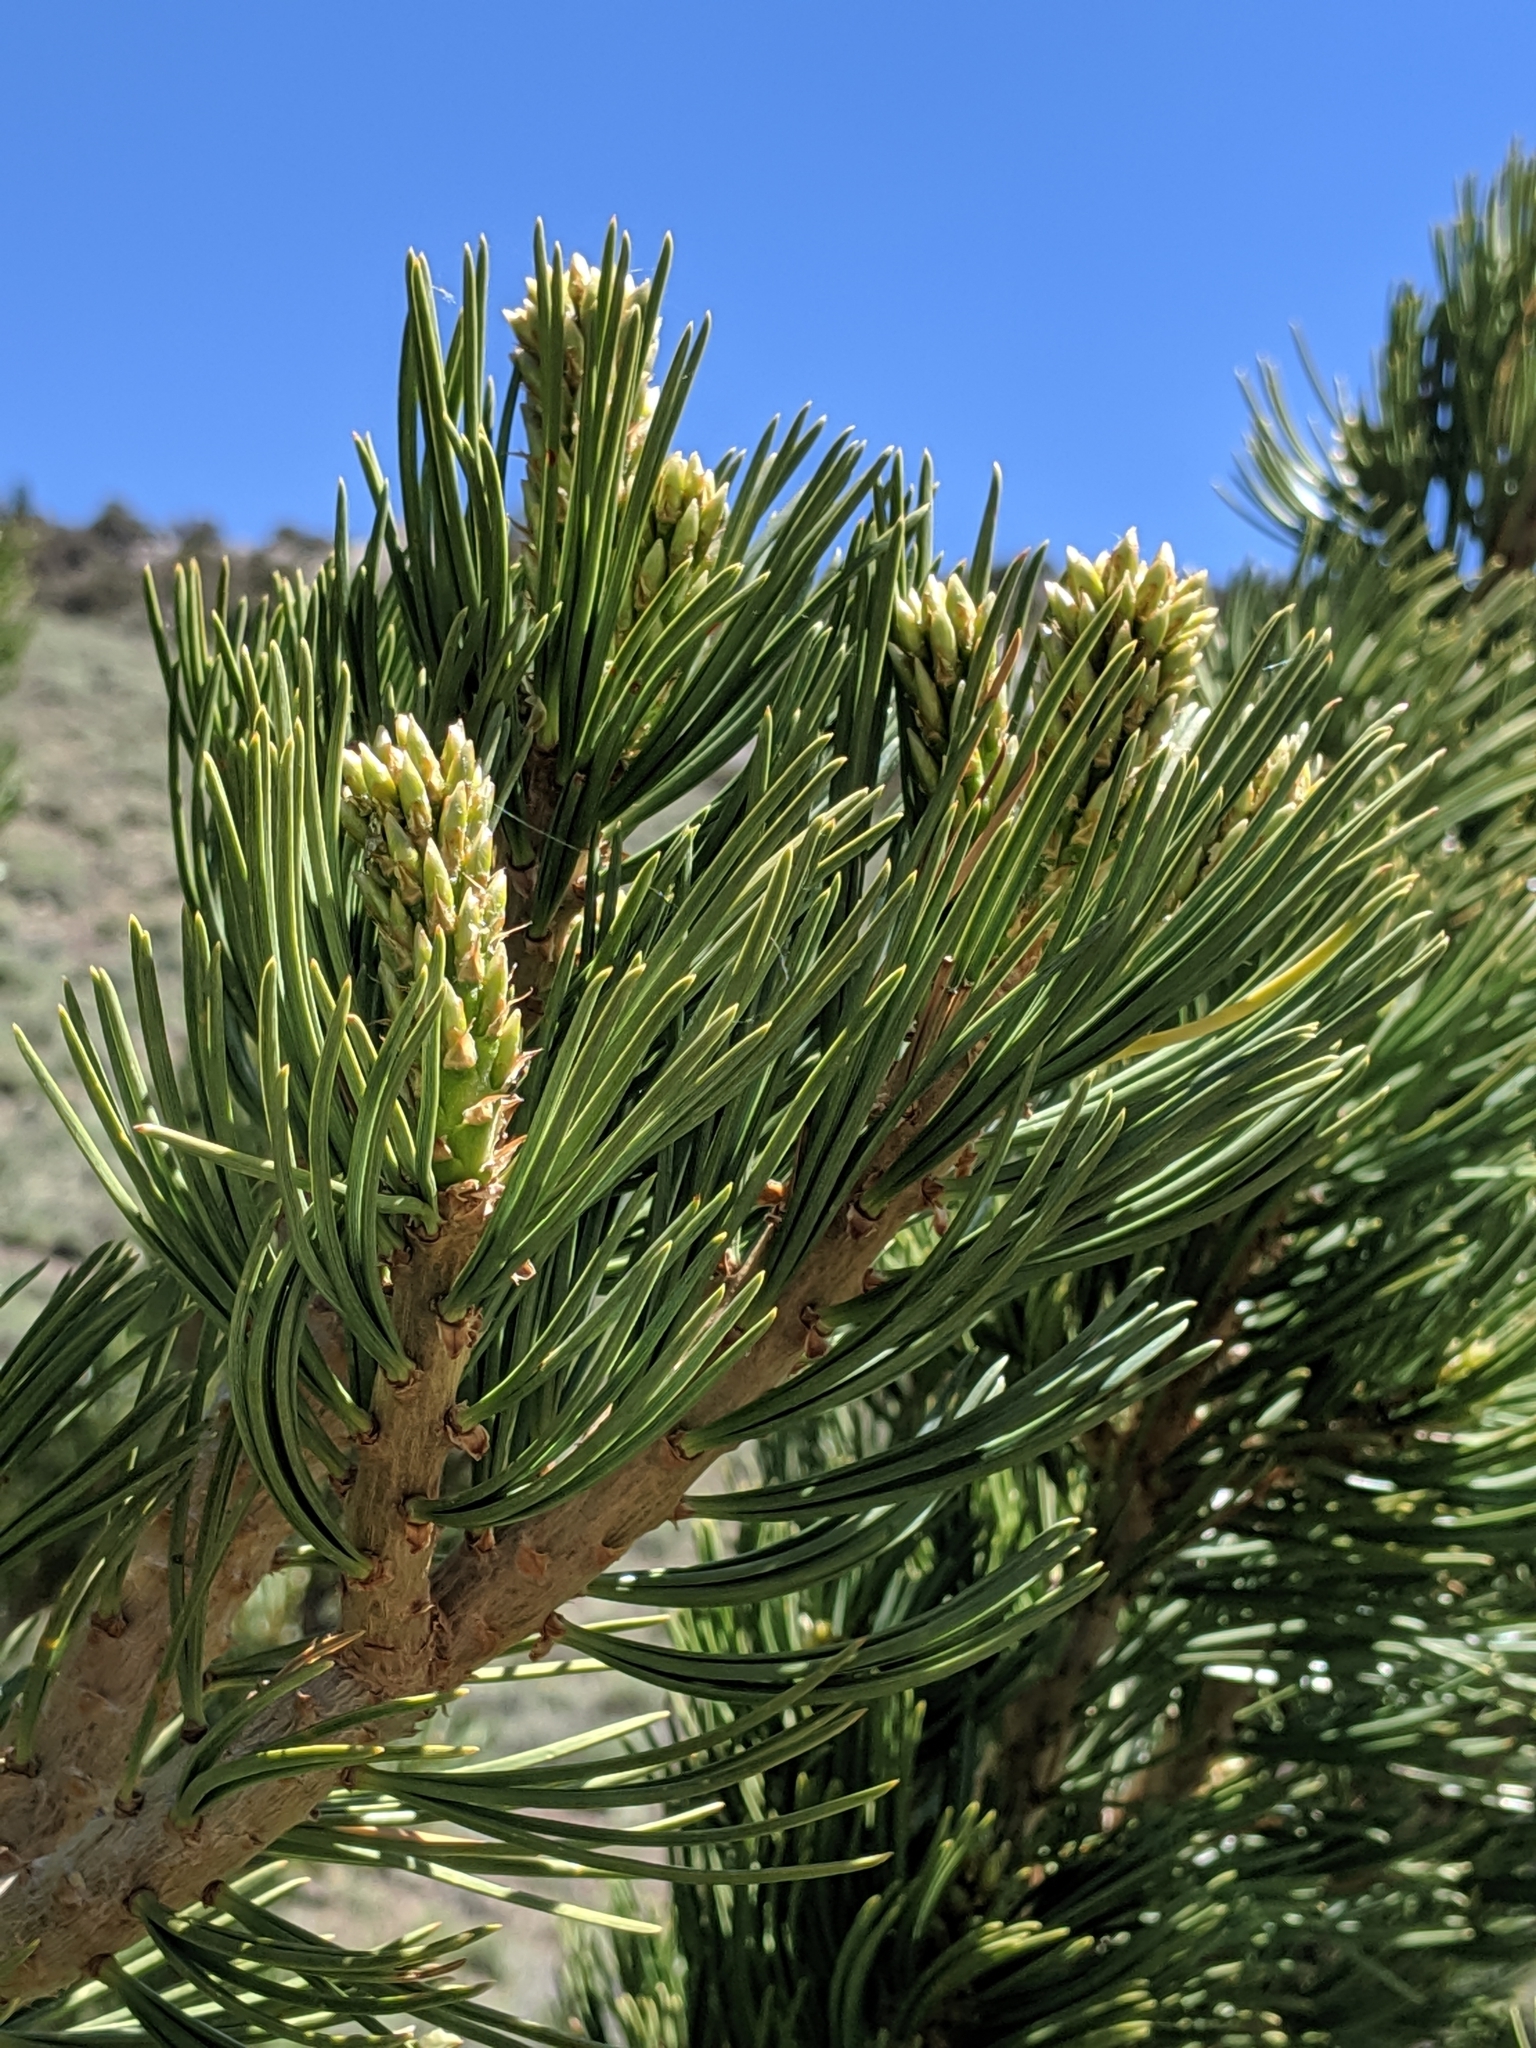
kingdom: Plantae
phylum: Tracheophyta
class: Pinopsida
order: Pinales
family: Pinaceae
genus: Pinus
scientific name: Pinus flexilis
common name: Limber pine
